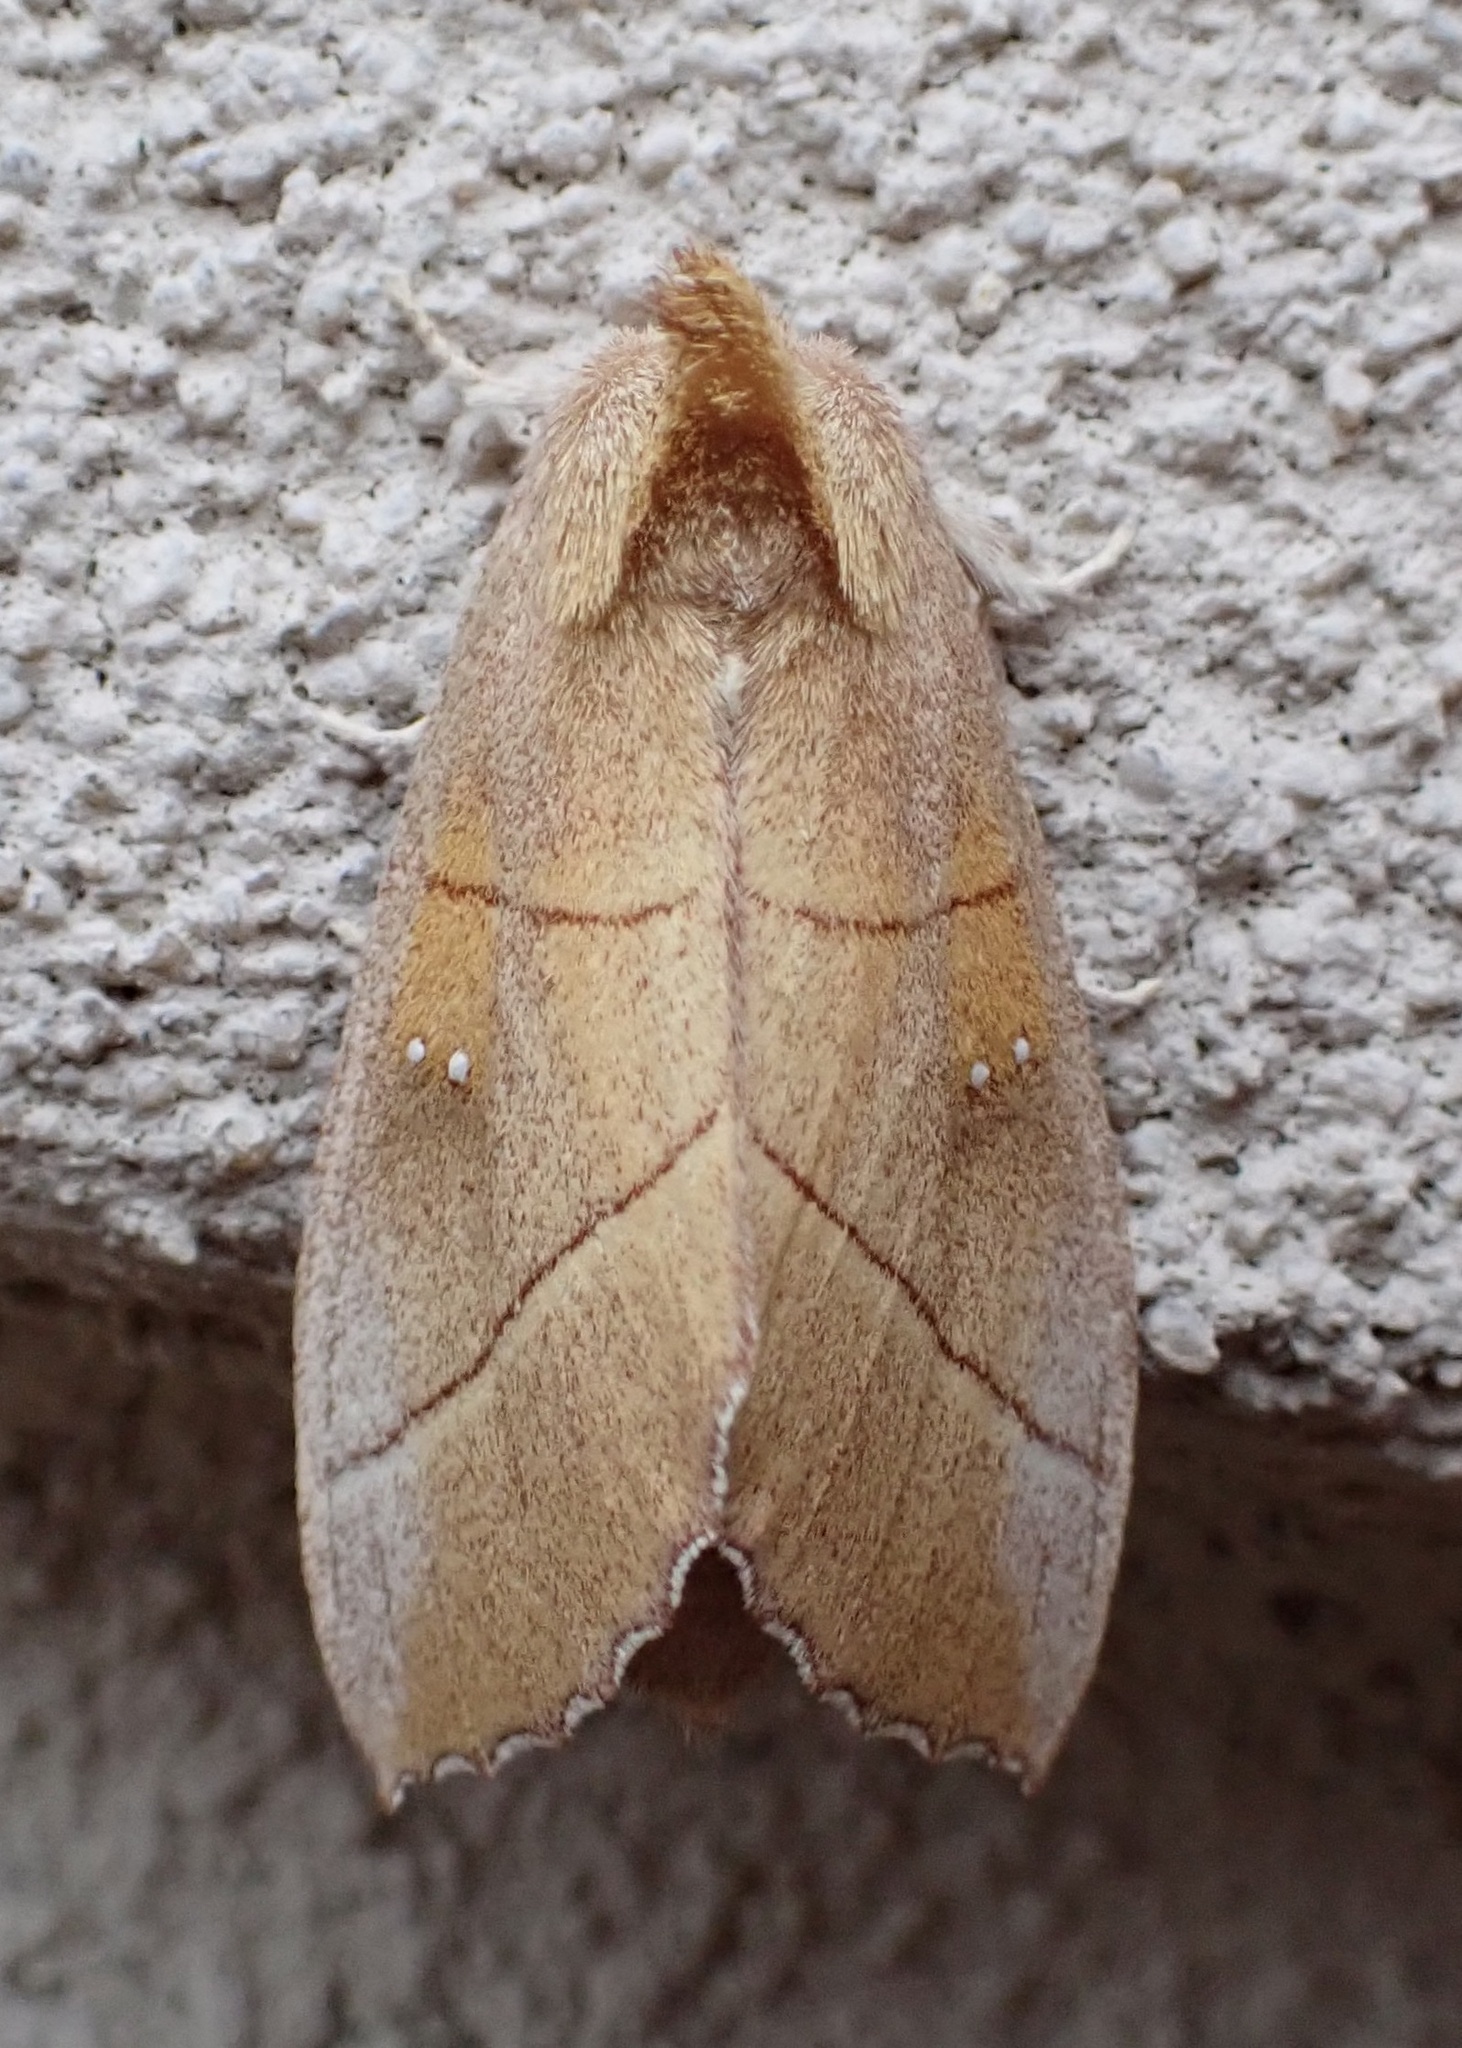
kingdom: Animalia
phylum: Arthropoda
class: Insecta
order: Lepidoptera
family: Notodontidae
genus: Nadata
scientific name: Nadata gibbosa
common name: White-dotted prominent
